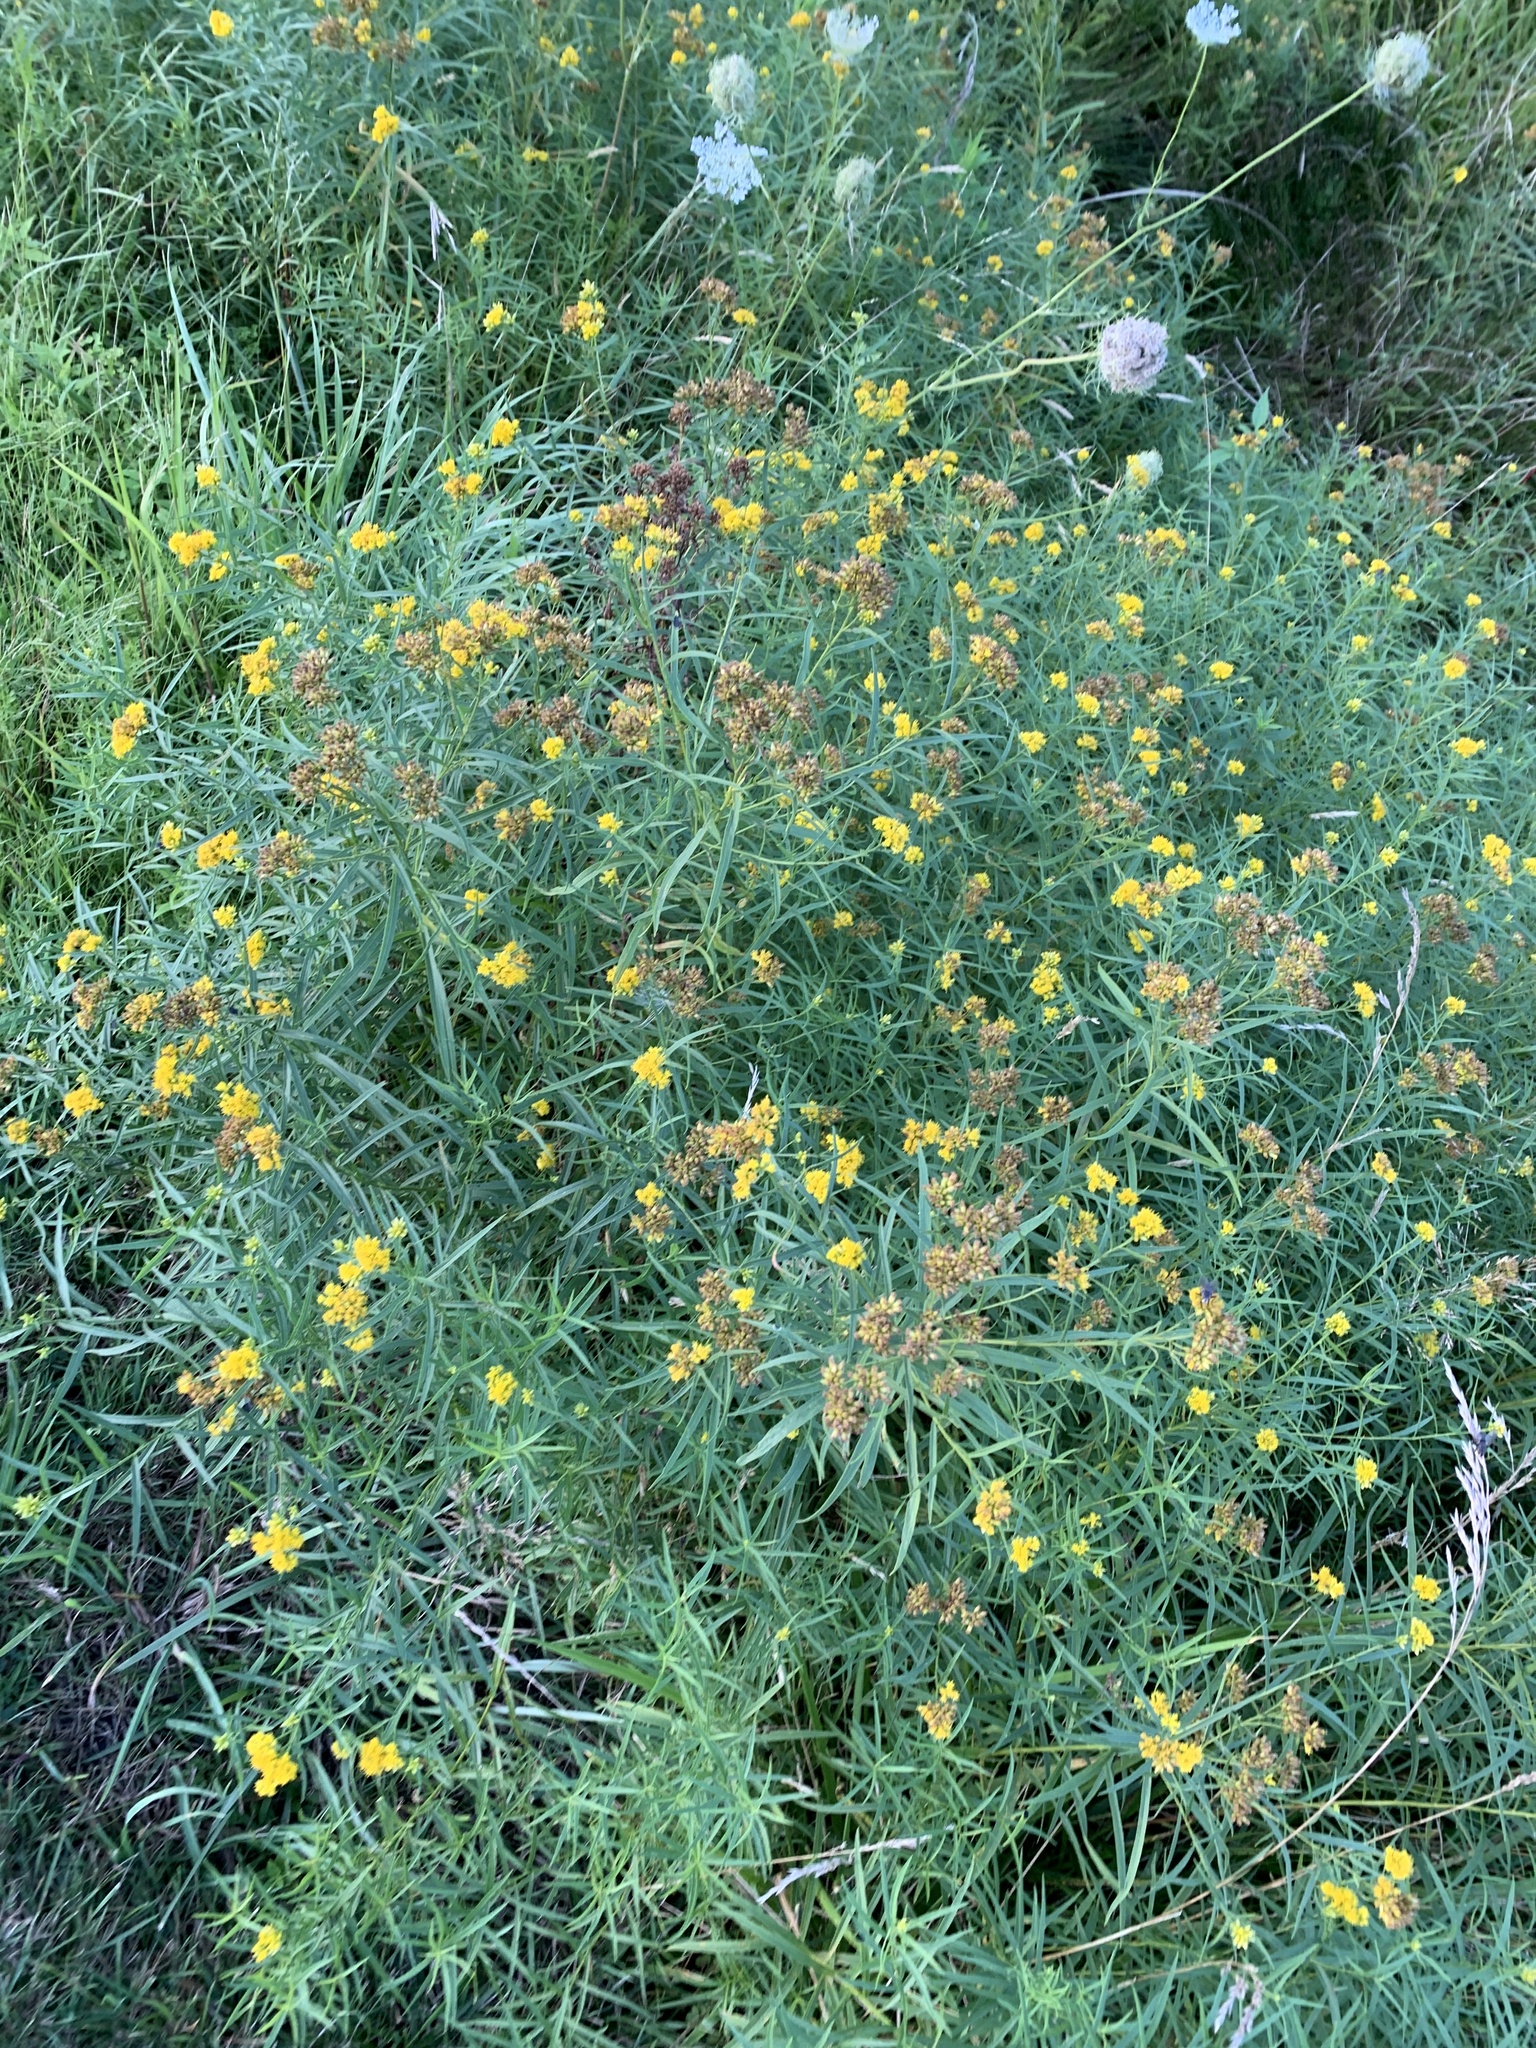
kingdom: Plantae
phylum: Tracheophyta
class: Magnoliopsida
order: Asterales
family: Asteraceae
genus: Euthamia
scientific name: Euthamia graminifolia
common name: Common goldentop
